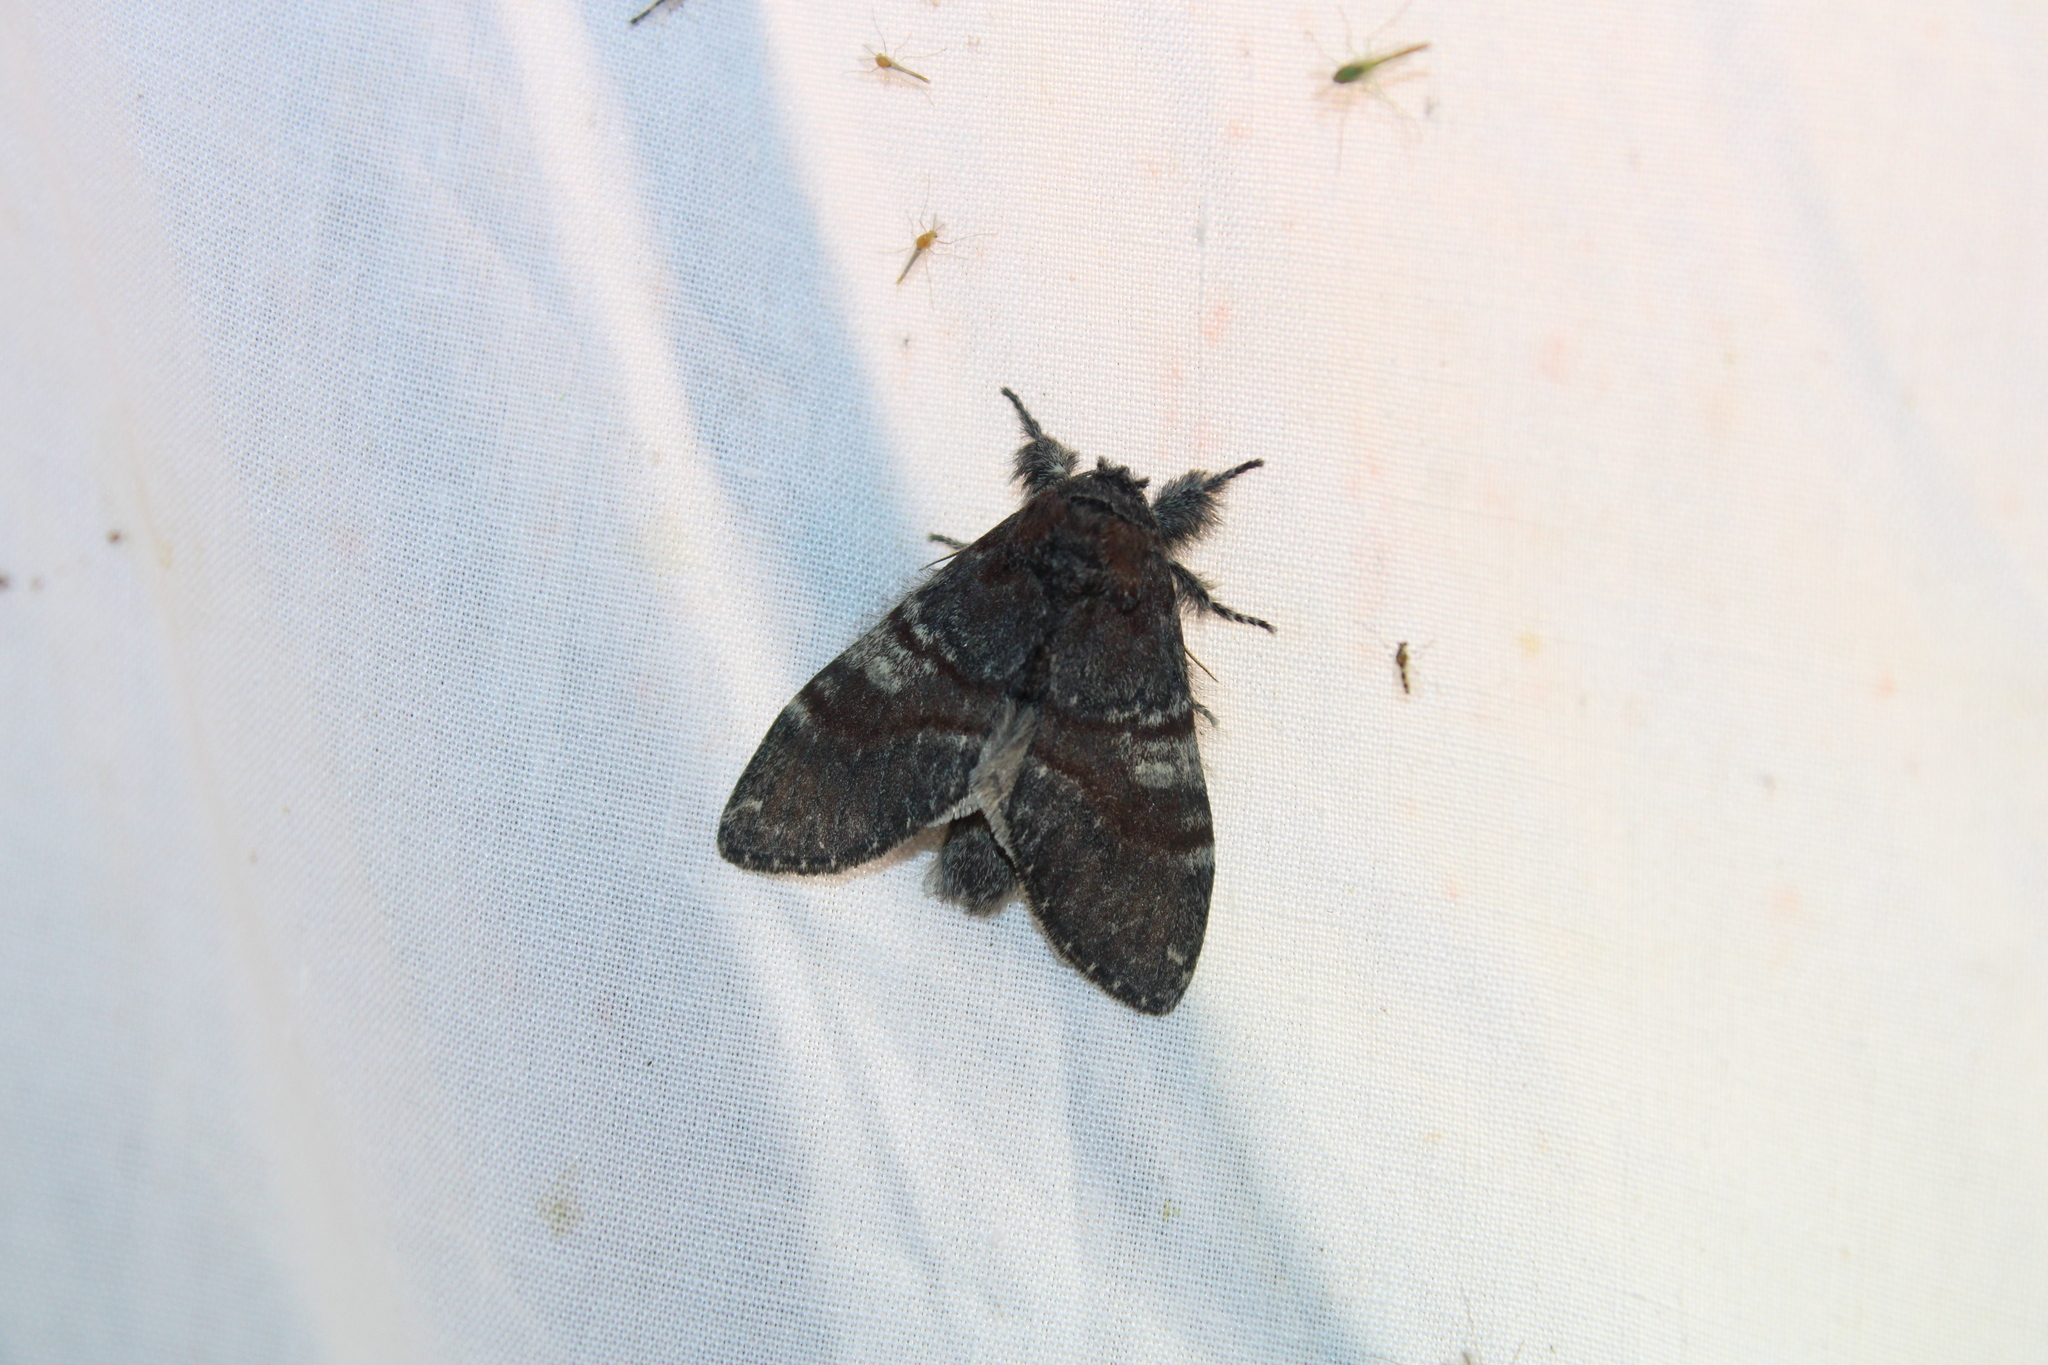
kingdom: Animalia
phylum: Arthropoda
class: Insecta
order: Lepidoptera
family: Notodontidae
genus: Peridea
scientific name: Peridea ferruginea
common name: Chocolate prominent
